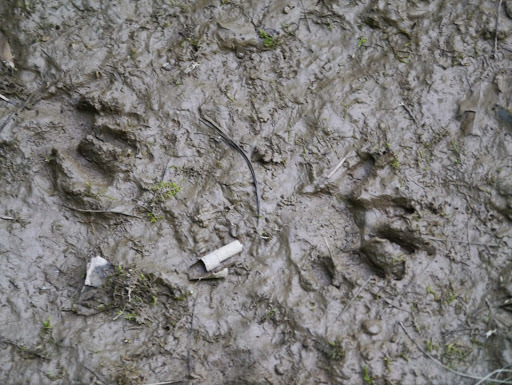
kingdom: Animalia
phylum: Chordata
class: Mammalia
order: Carnivora
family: Procyonidae
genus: Procyon
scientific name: Procyon lotor
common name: Raccoon
